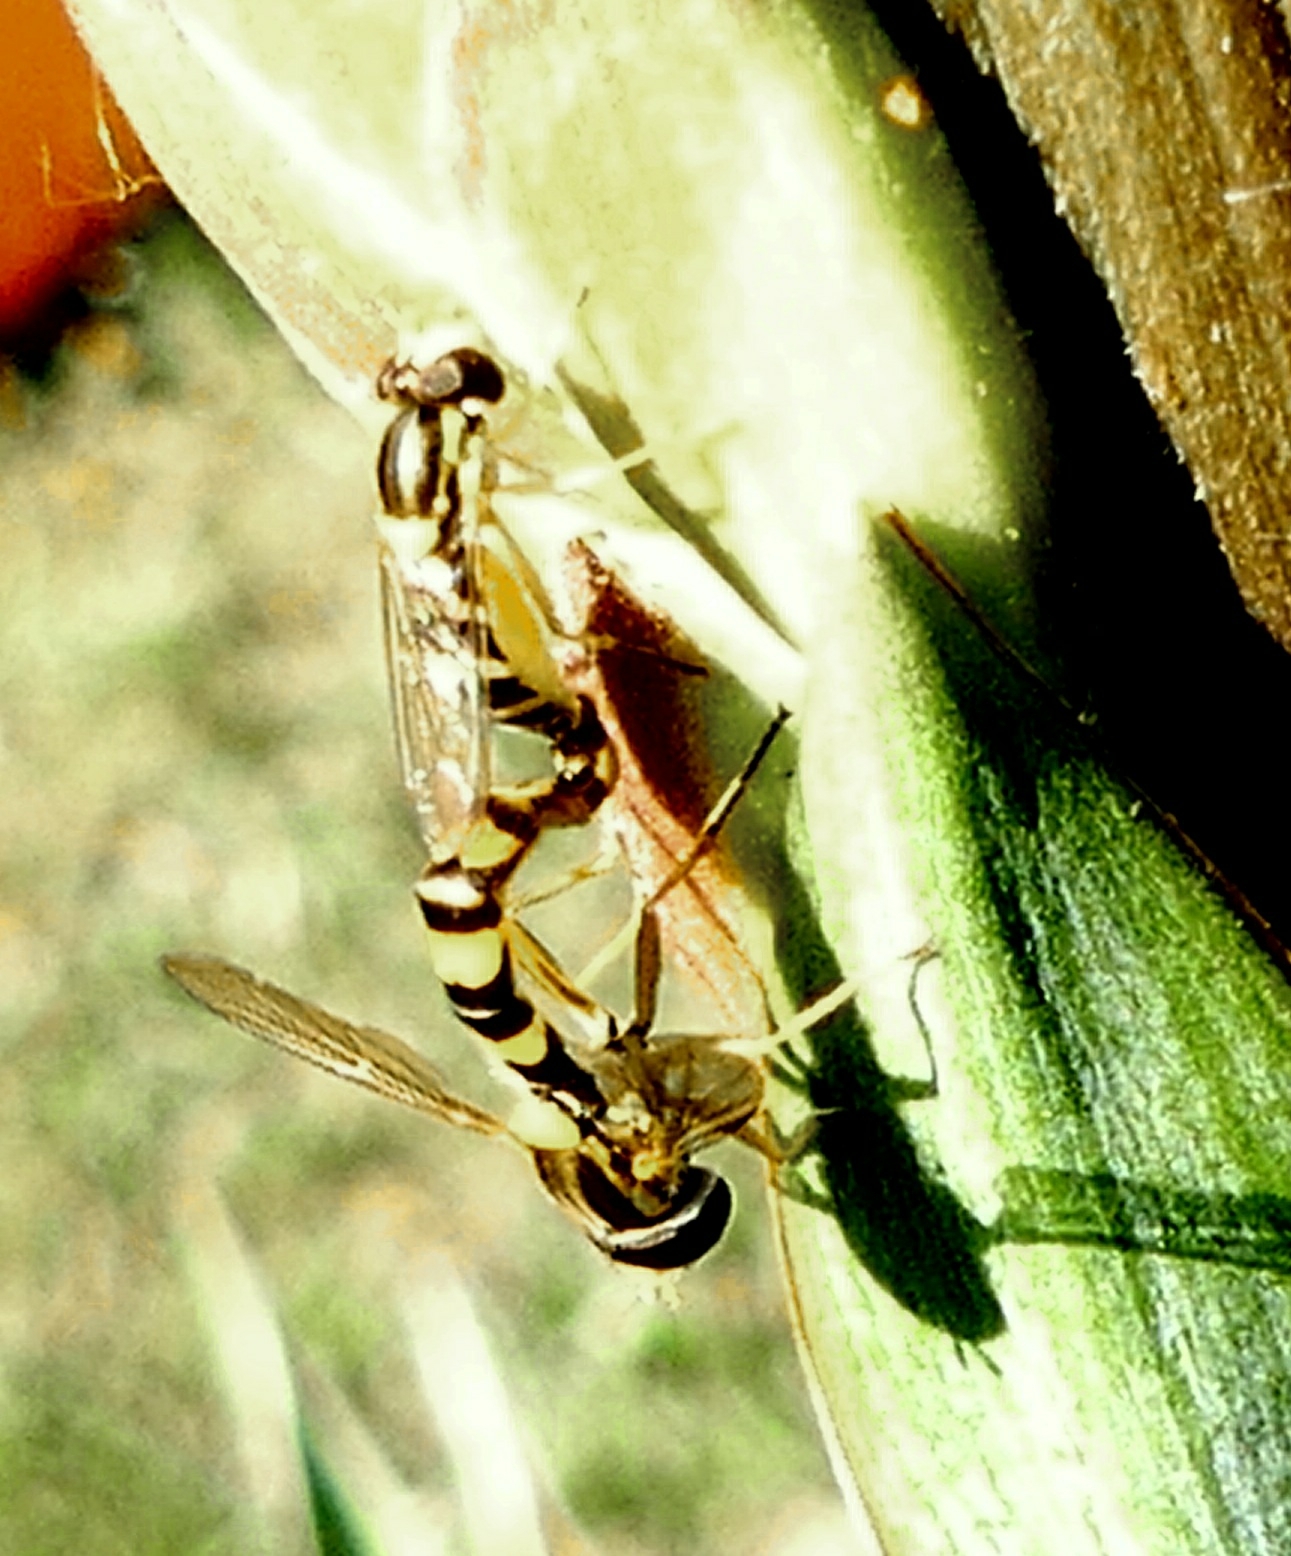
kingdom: Animalia
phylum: Arthropoda
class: Insecta
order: Diptera
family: Syrphidae
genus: Sphaerophoria
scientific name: Sphaerophoria scripta
